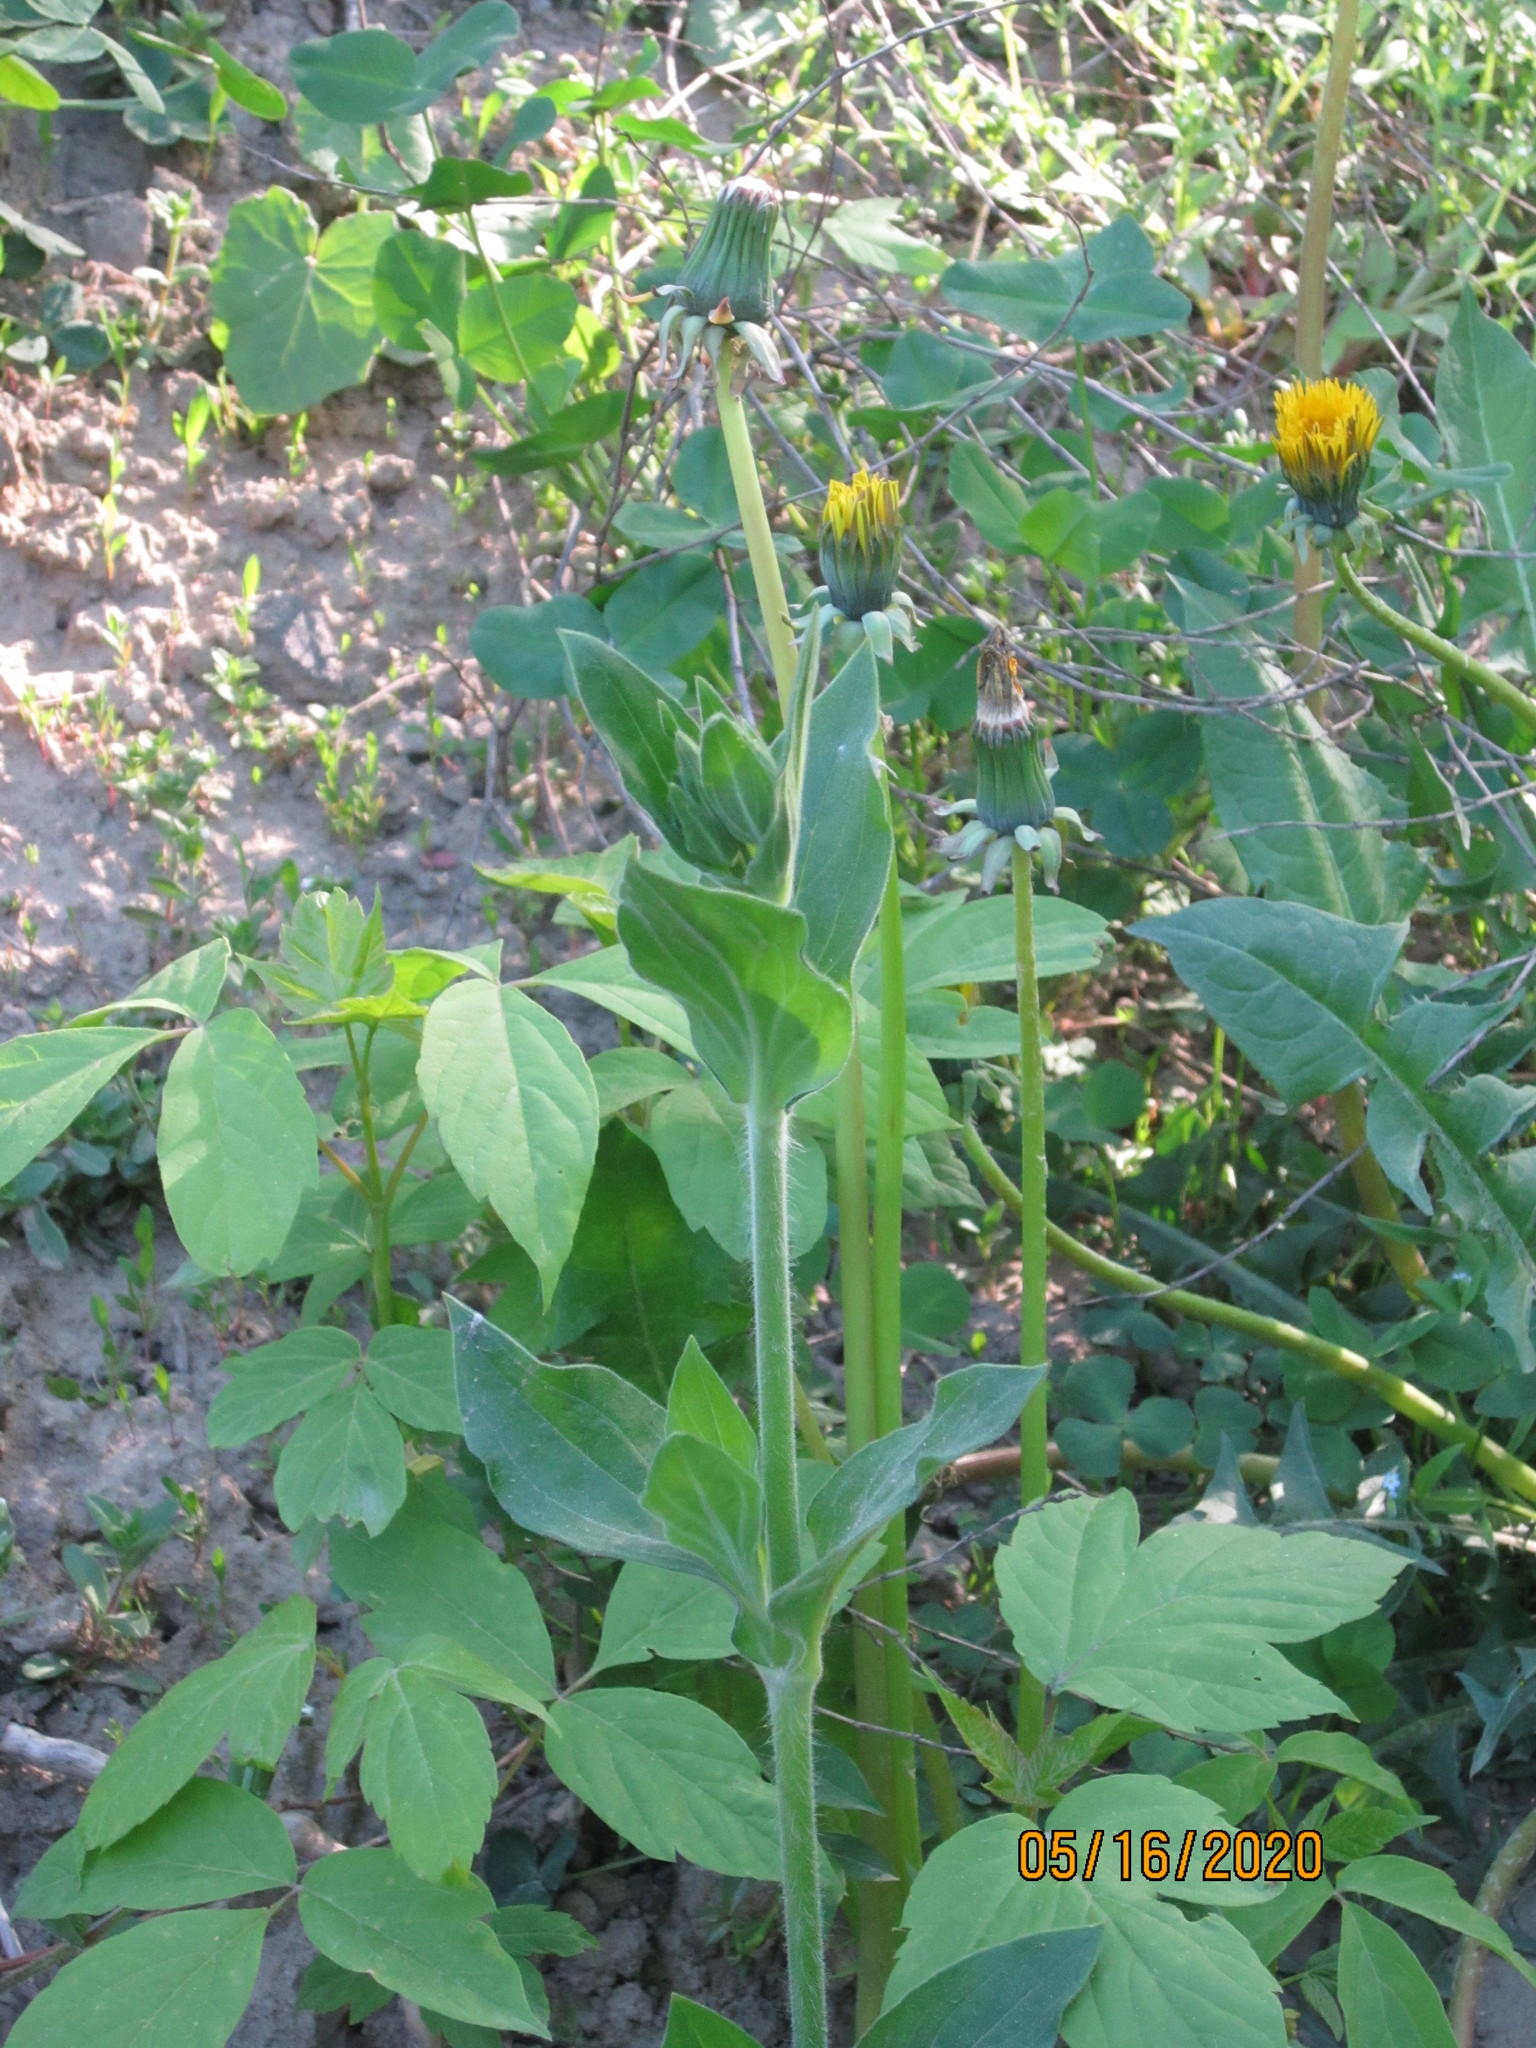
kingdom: Plantae
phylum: Tracheophyta
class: Magnoliopsida
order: Caryophyllales
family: Caryophyllaceae
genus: Silene
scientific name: Silene latifolia
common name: White campion
